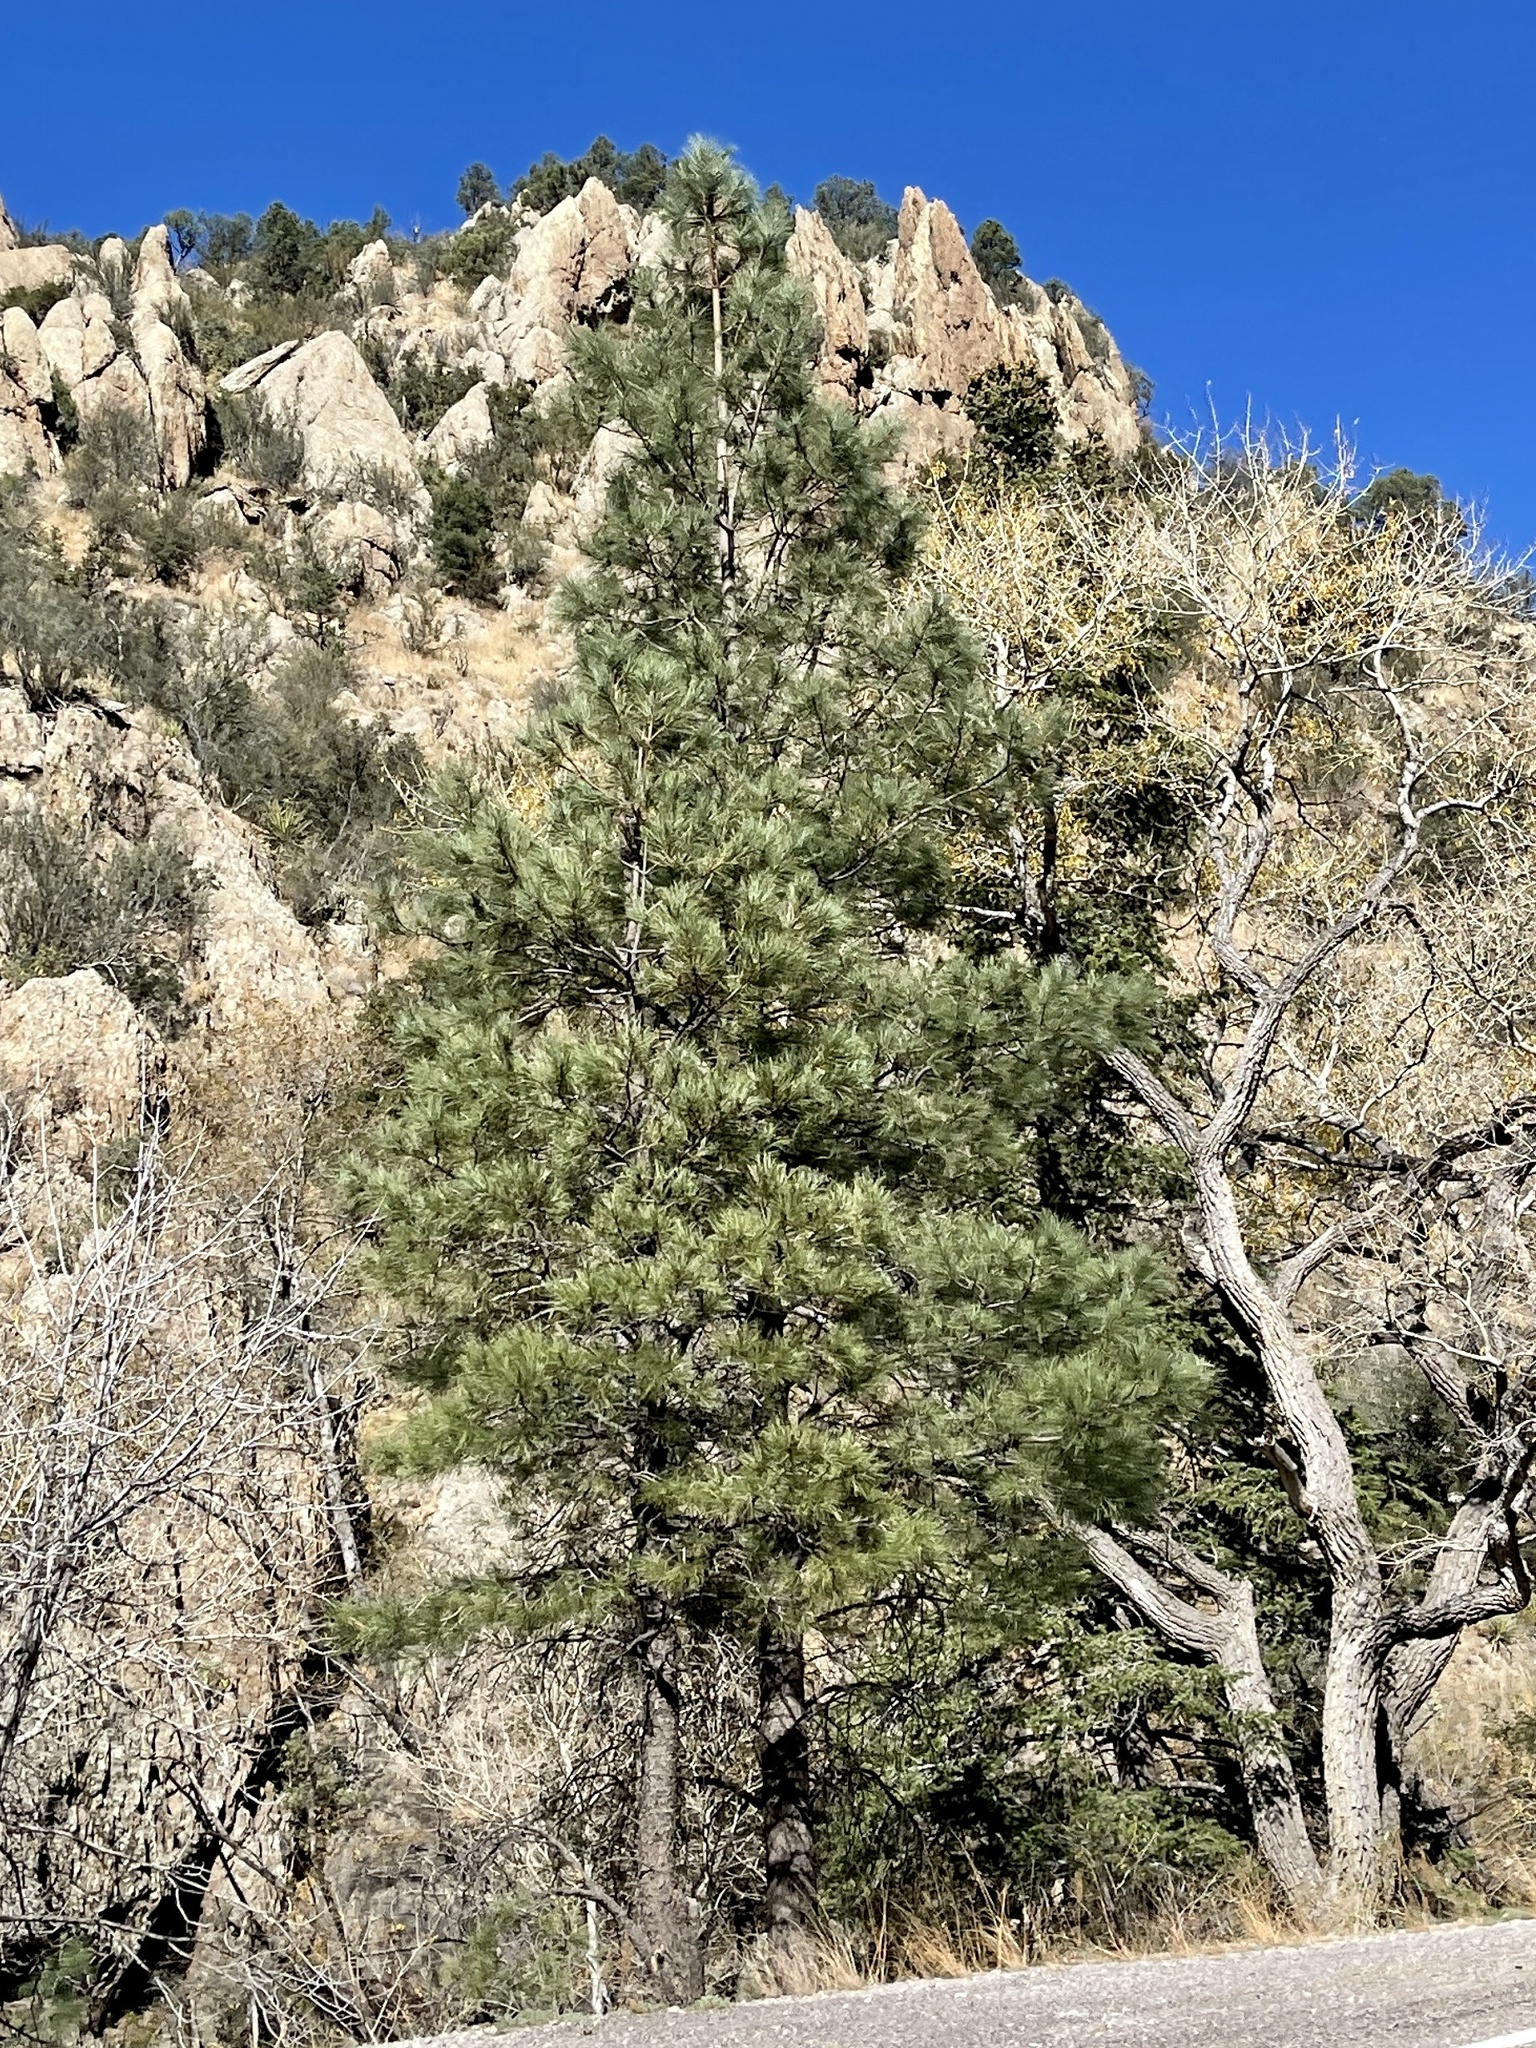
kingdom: Plantae
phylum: Tracheophyta
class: Pinopsida
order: Pinales
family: Pinaceae
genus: Pinus
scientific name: Pinus ponderosa
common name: Western yellow-pine
